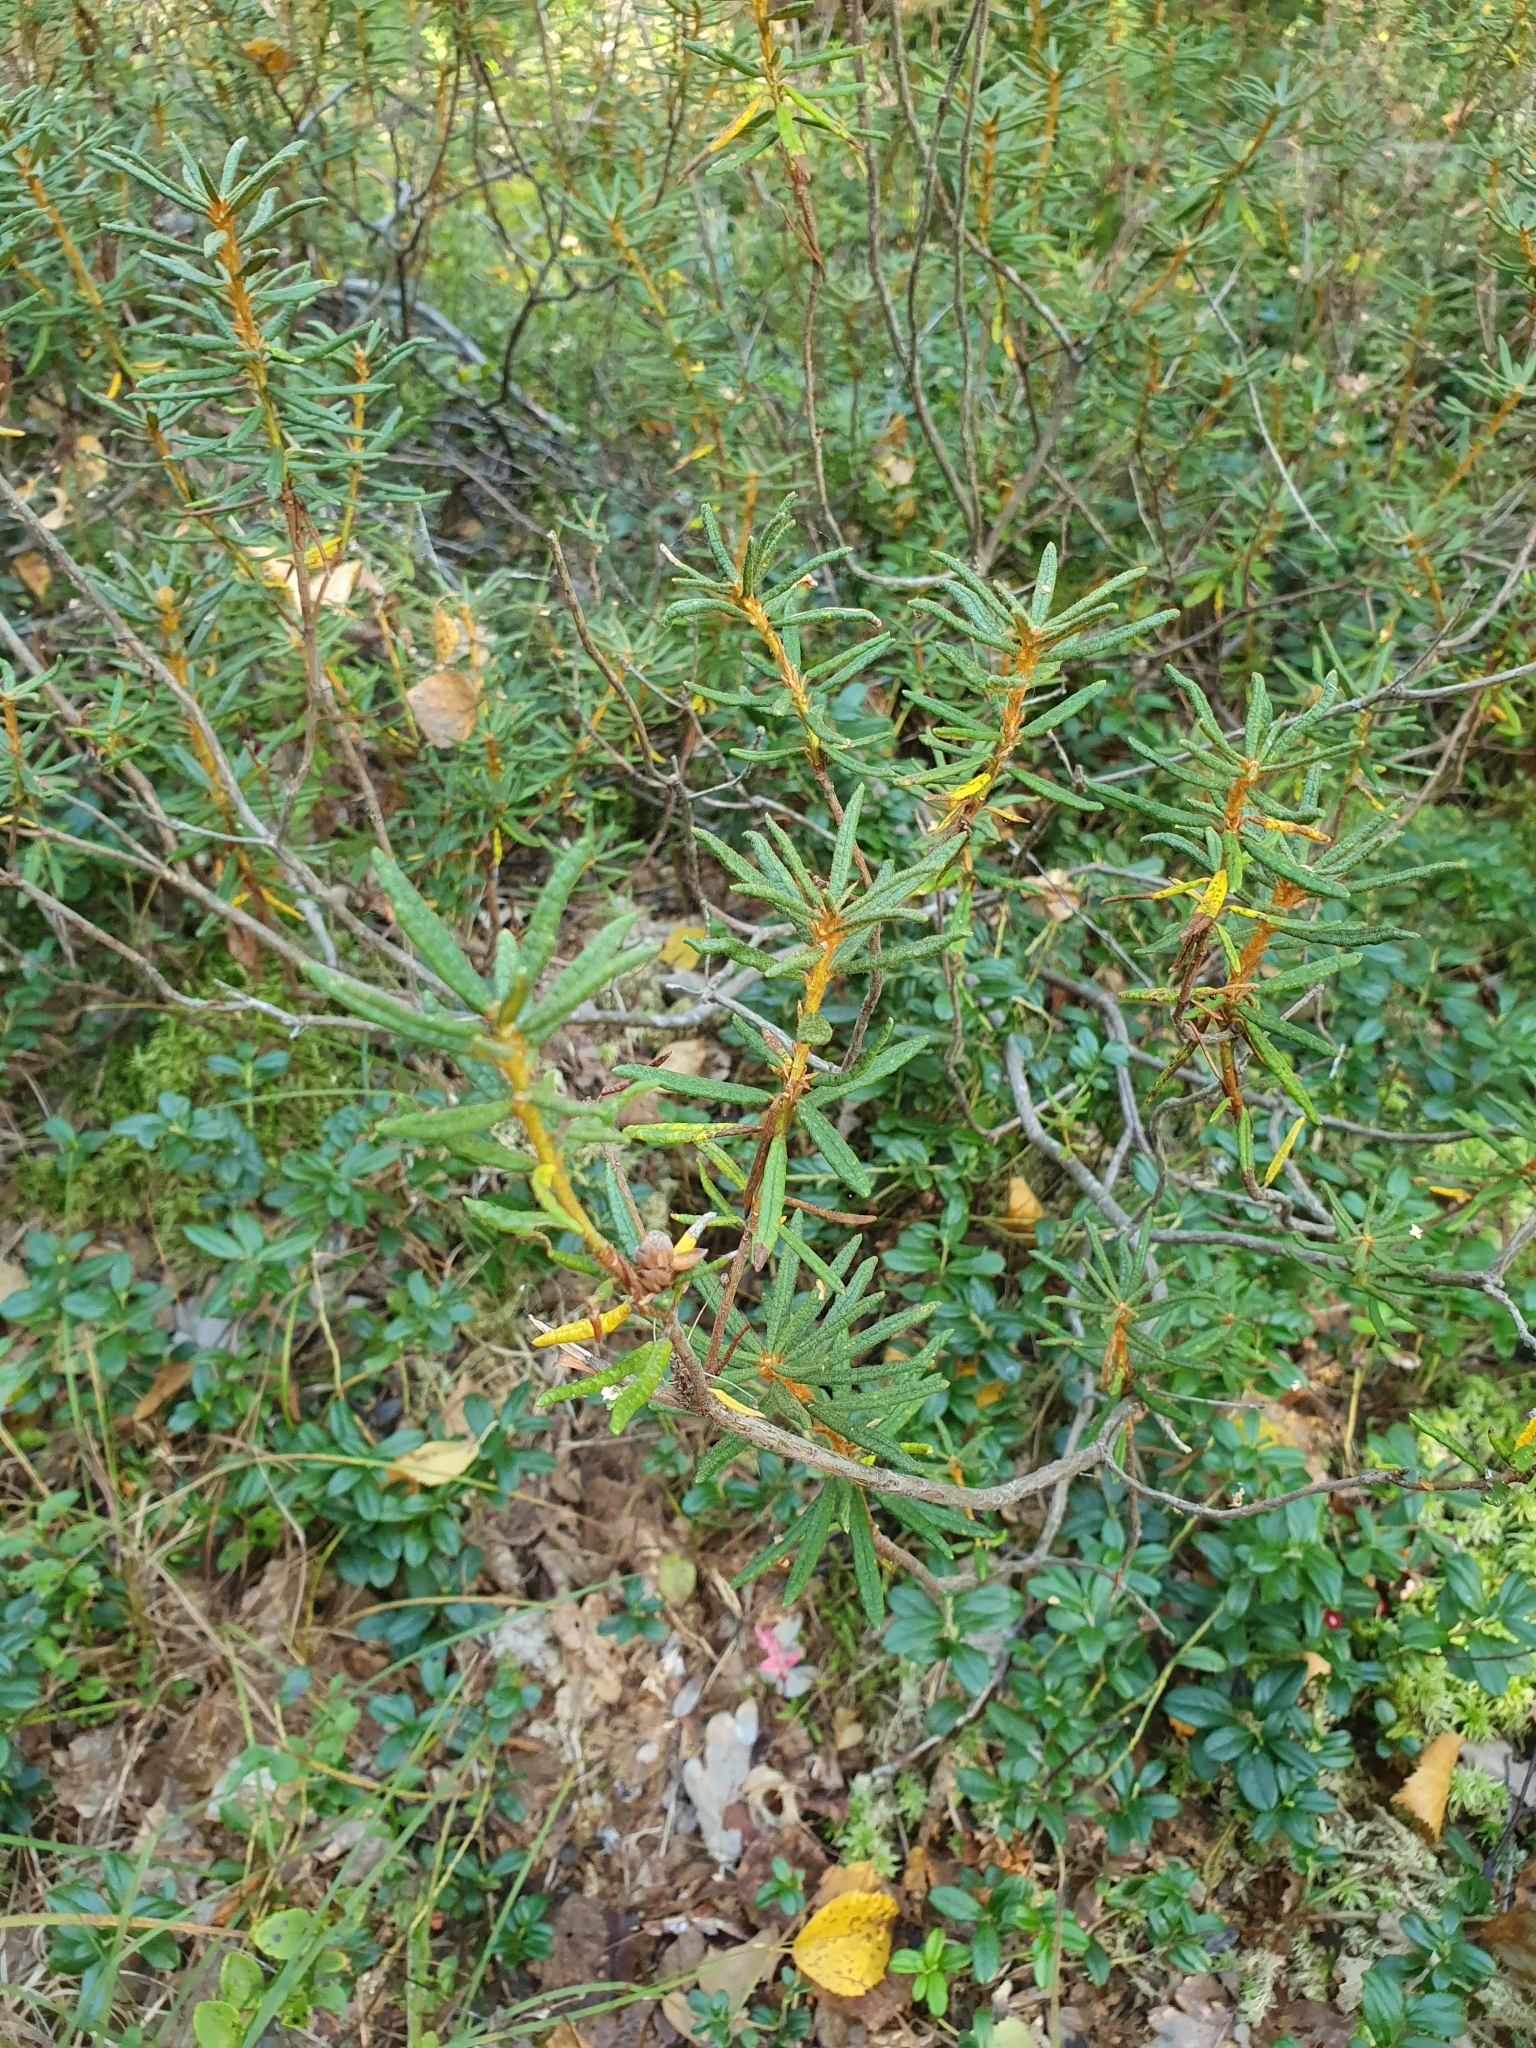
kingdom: Plantae
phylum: Tracheophyta
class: Magnoliopsida
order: Ericales
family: Ericaceae
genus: Rhododendron
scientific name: Rhododendron tomentosum
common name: Marsh labrador tea
